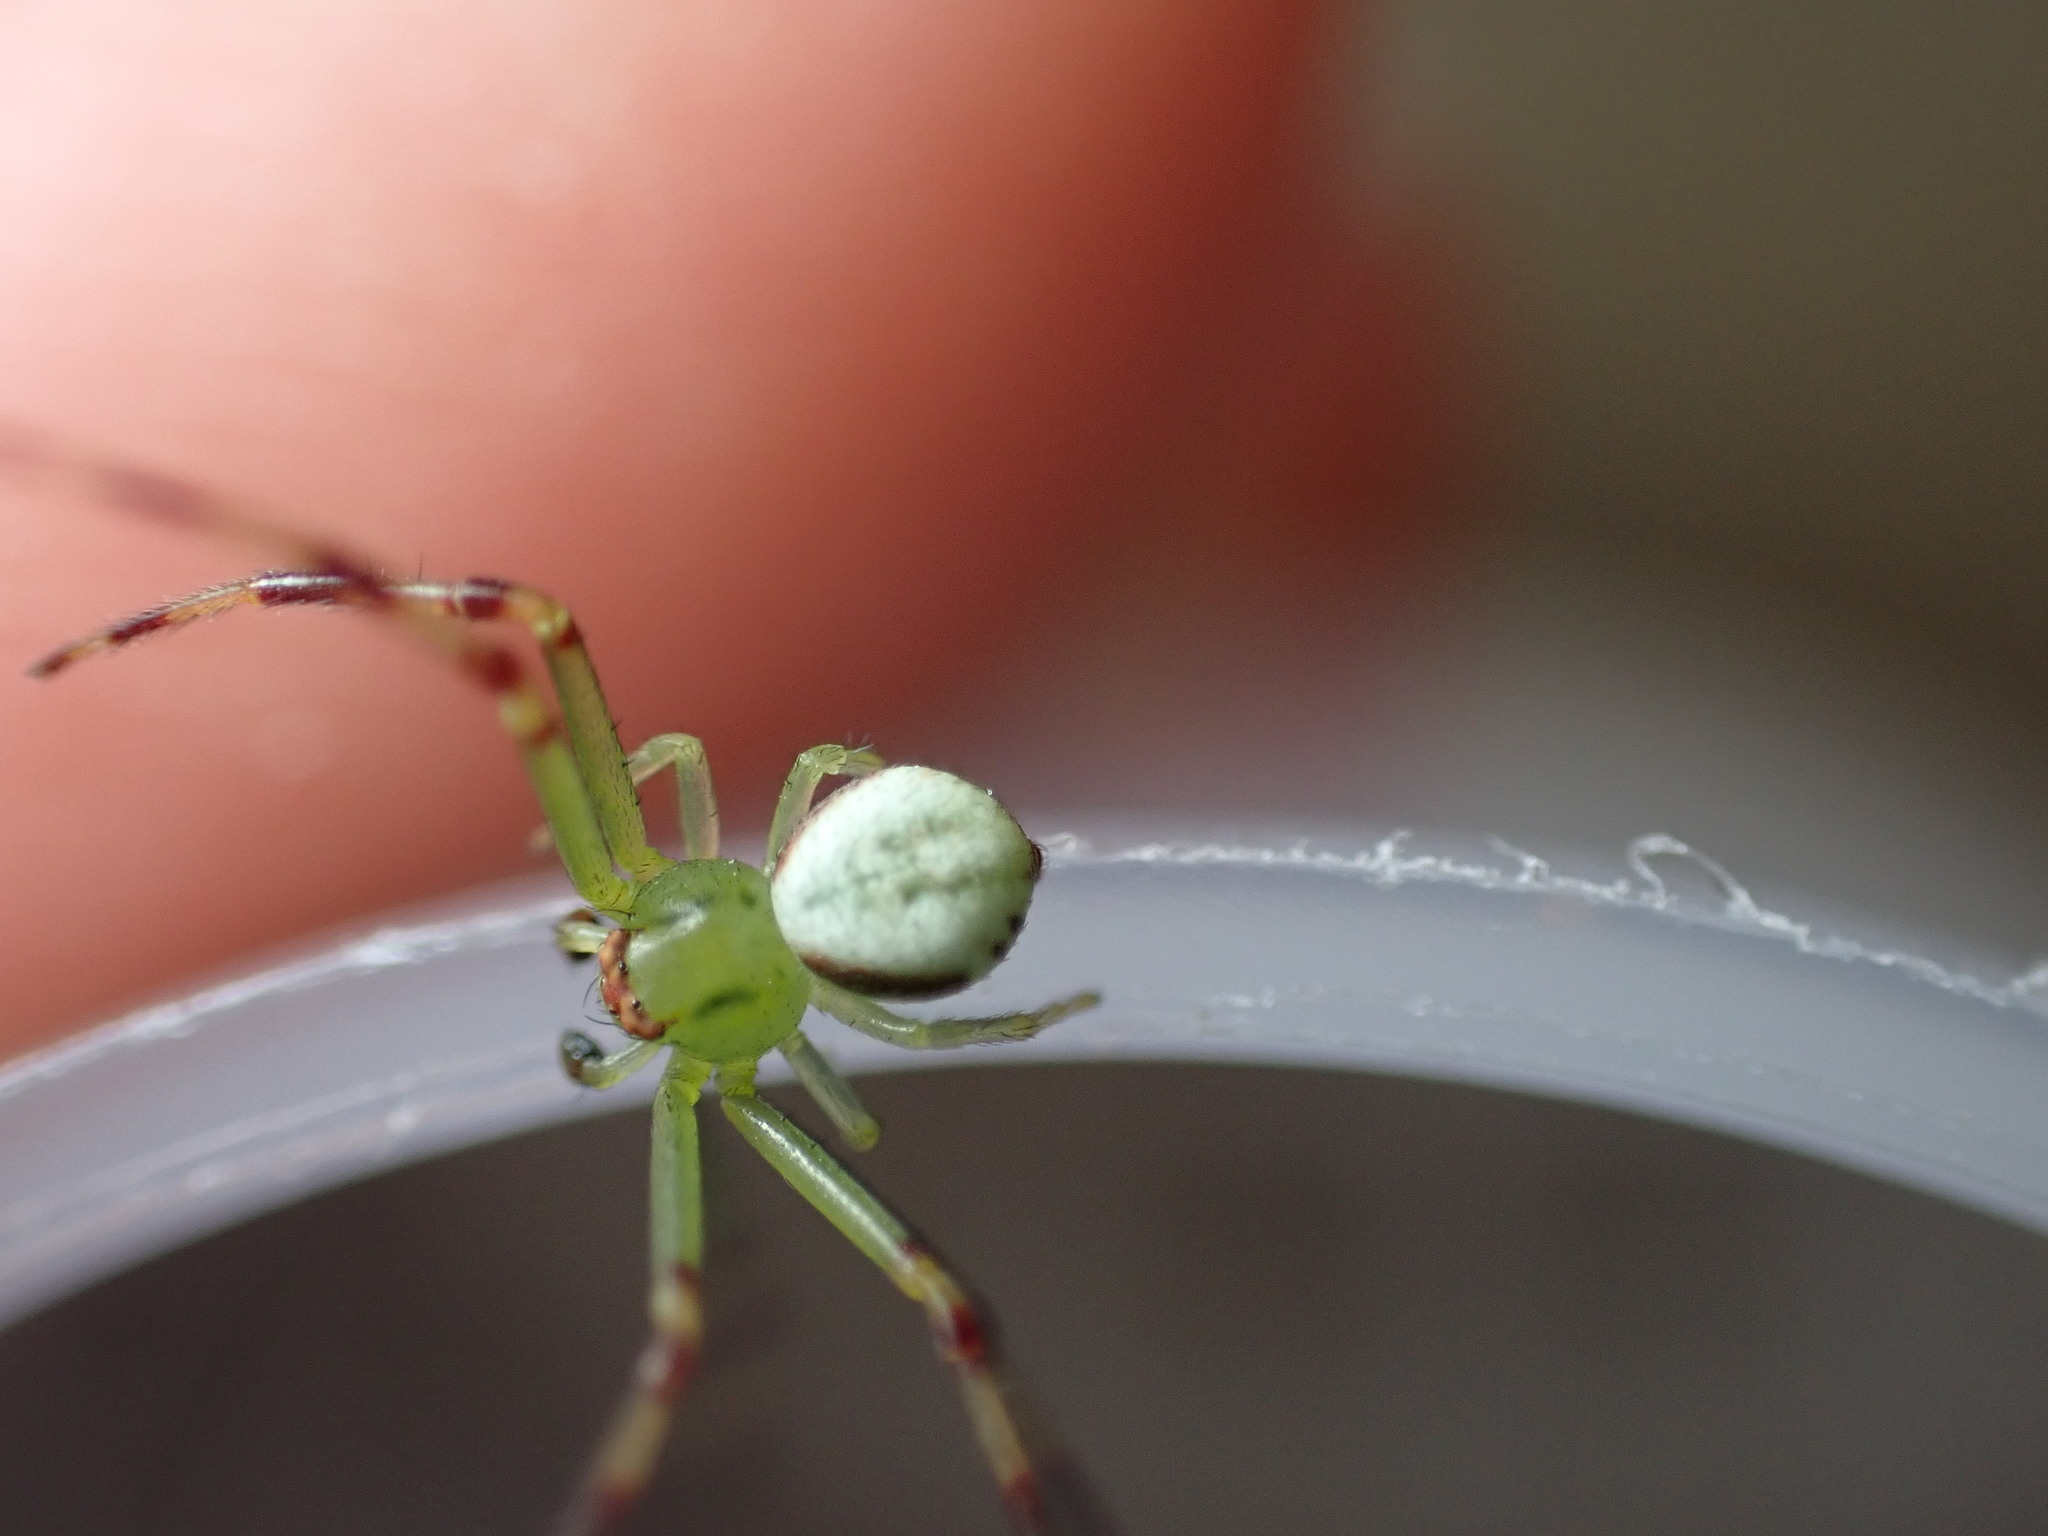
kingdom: Animalia
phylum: Arthropoda
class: Arachnida
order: Araneae
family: Thomisidae
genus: Misumena
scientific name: Misumena vatia
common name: Goldenrod crab spider
